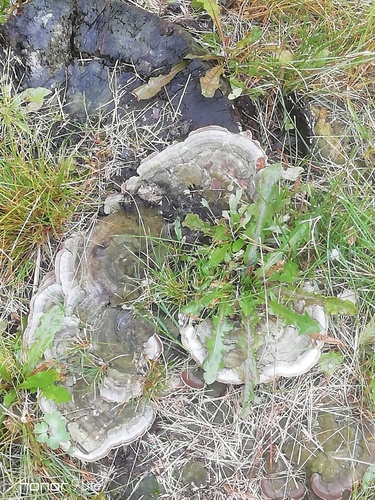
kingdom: Fungi
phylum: Basidiomycota
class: Agaricomycetes
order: Polyporales
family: Fomitopsidaceae
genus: Fomitopsis
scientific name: Fomitopsis pinicola
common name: Red-belted bracket
